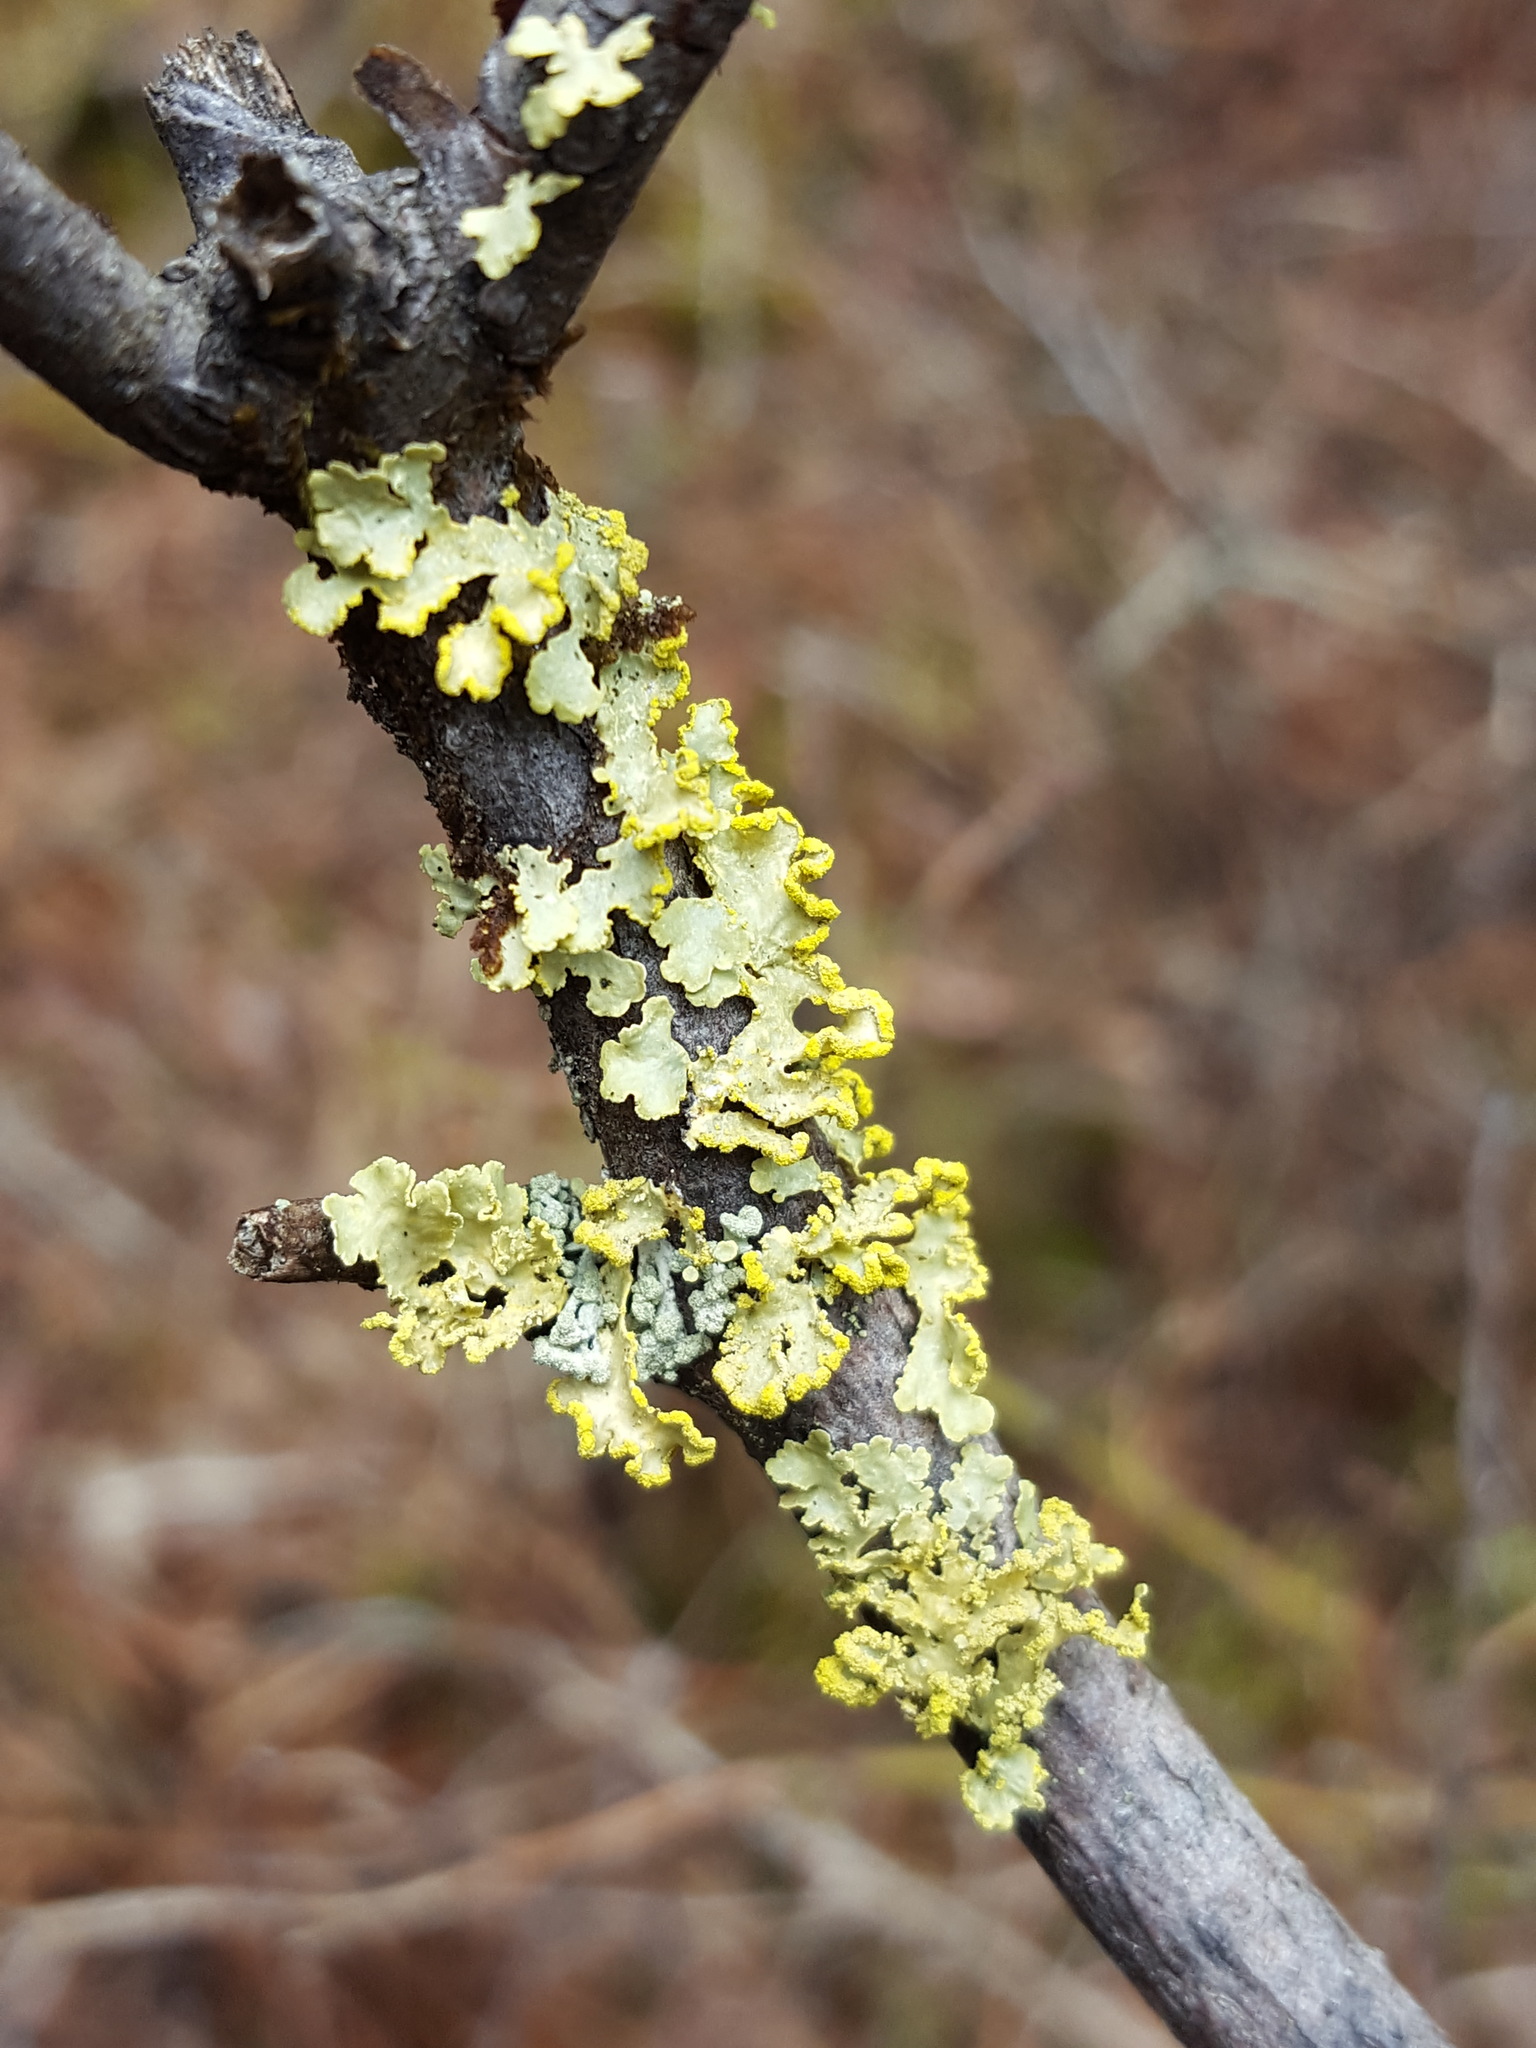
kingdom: Fungi
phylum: Ascomycota
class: Lecanoromycetes
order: Lecanorales
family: Parmeliaceae
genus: Vulpicida
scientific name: Vulpicida pinastri
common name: Powdered sunshine lichen
